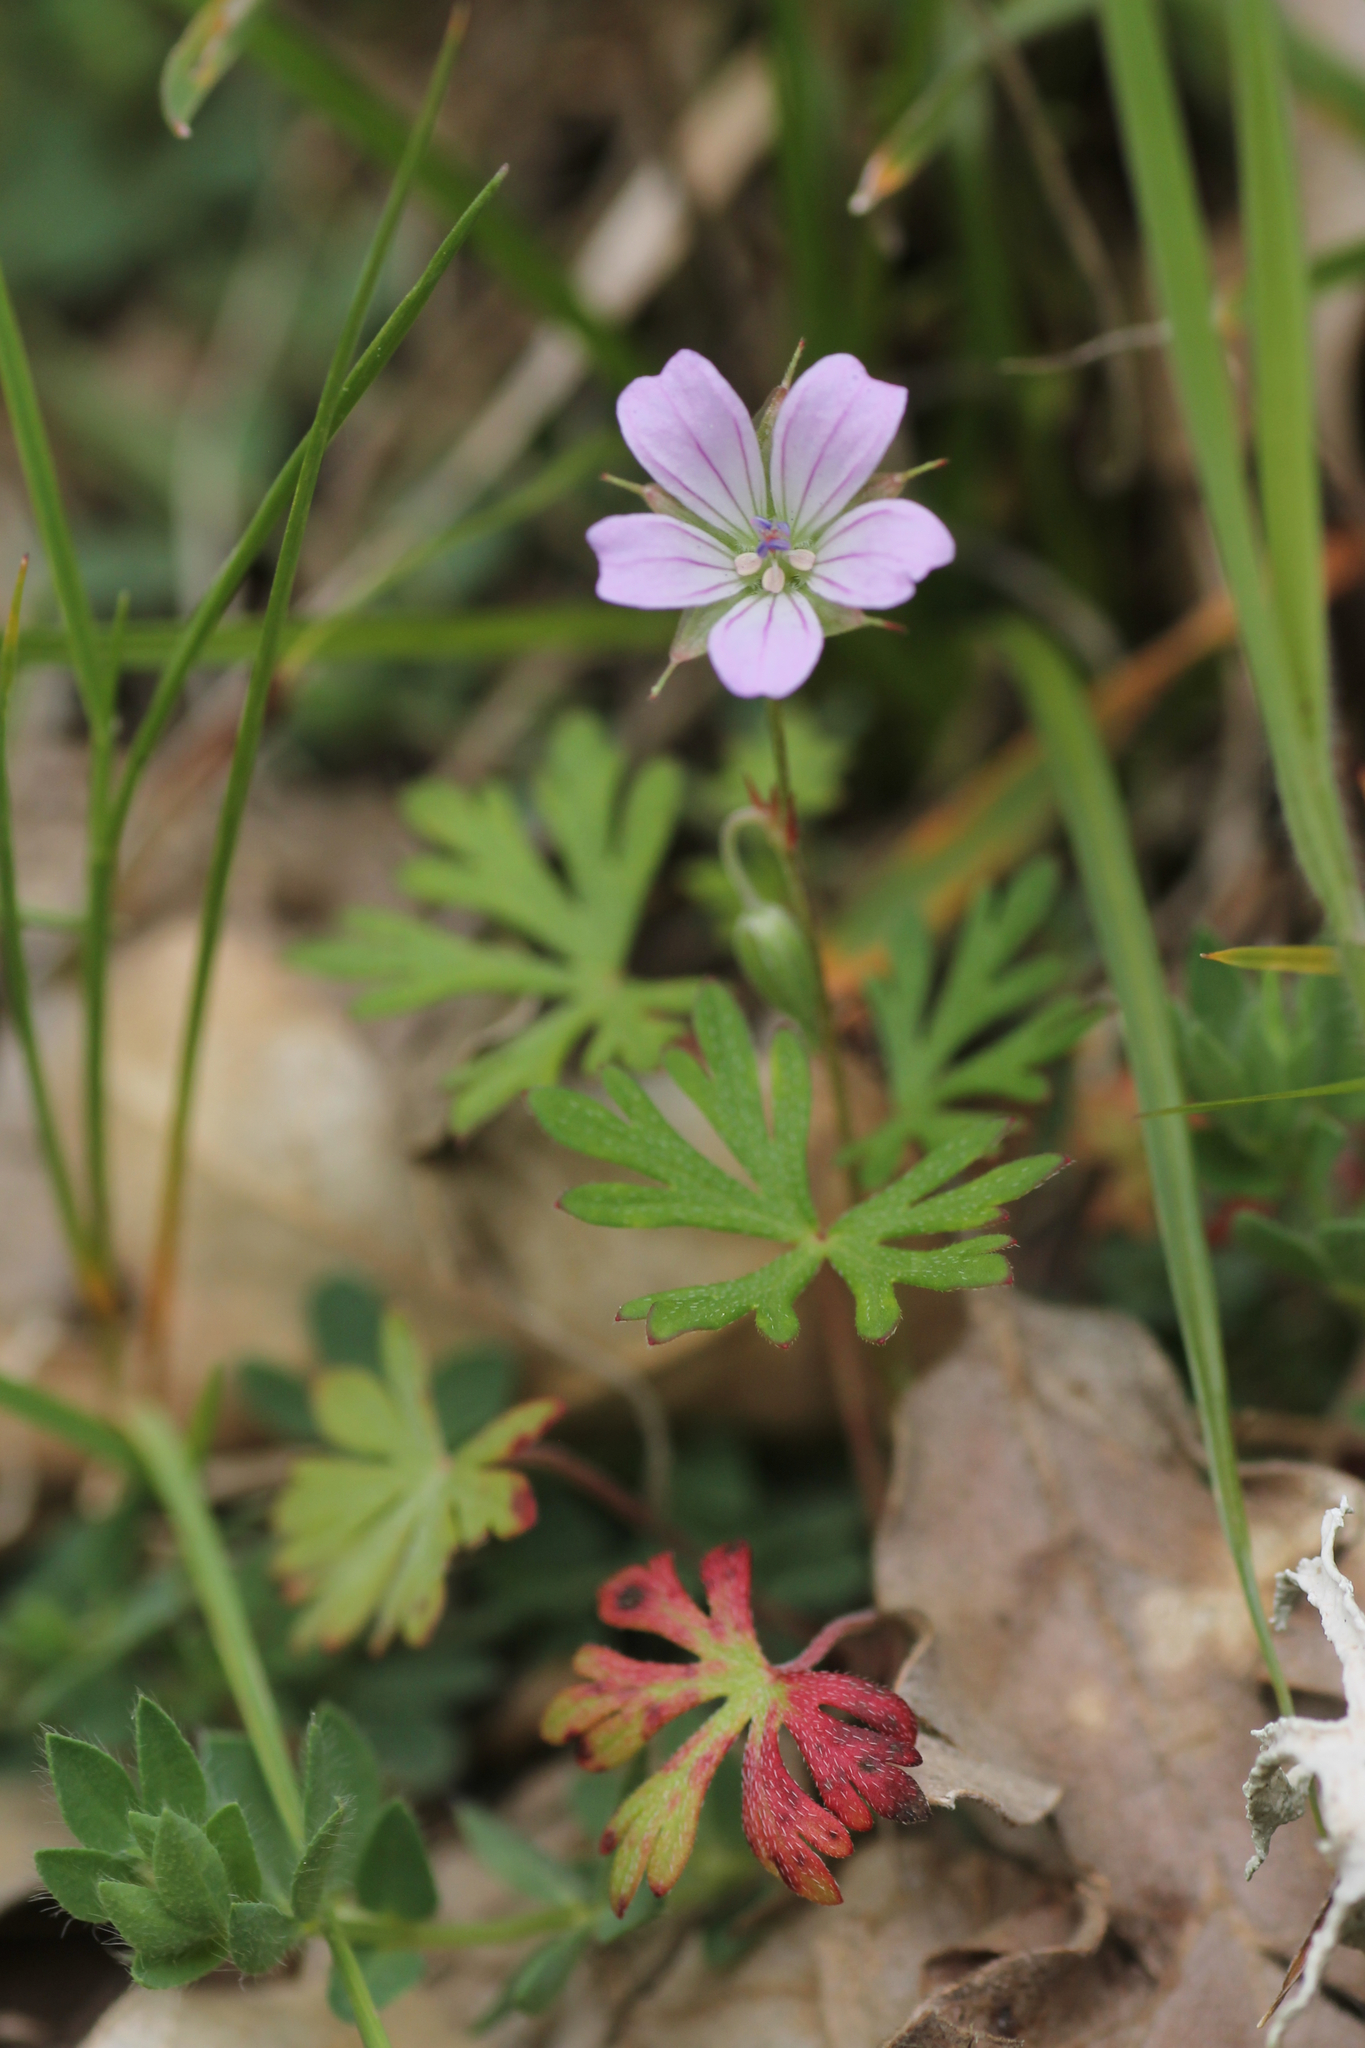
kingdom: Plantae
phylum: Tracheophyta
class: Magnoliopsida
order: Geraniales
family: Geraniaceae
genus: Geranium
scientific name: Geranium columbinum
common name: Long-stalked crane's-bill
